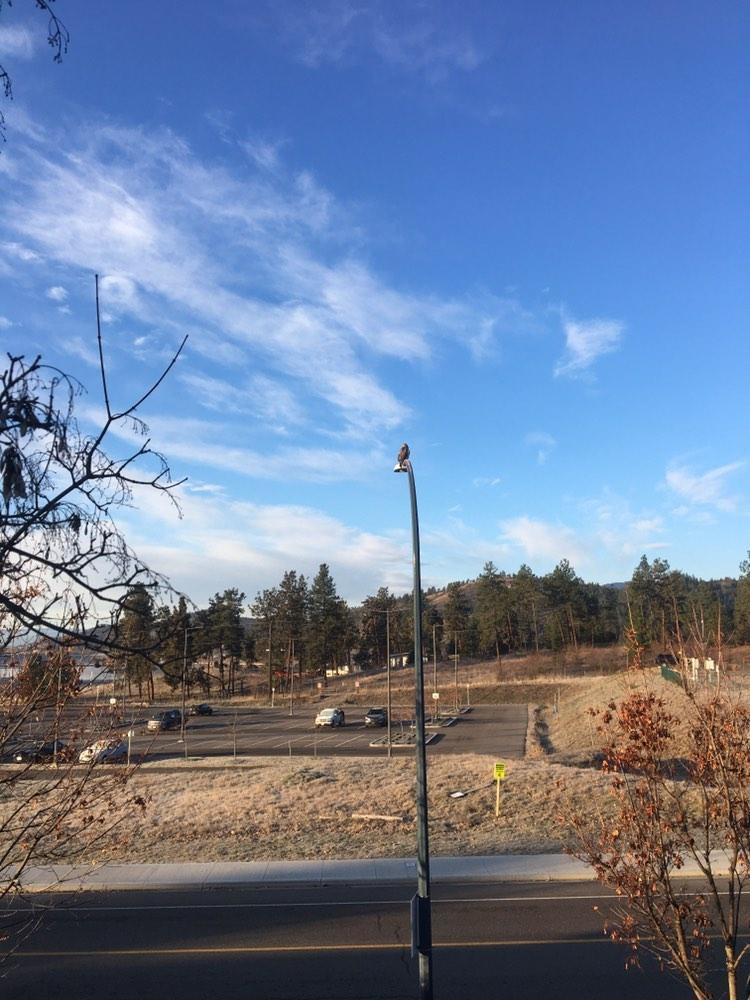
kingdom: Animalia
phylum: Chordata
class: Aves
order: Accipitriformes
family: Accipitridae
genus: Buteo
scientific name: Buteo jamaicensis
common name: Red-tailed hawk
